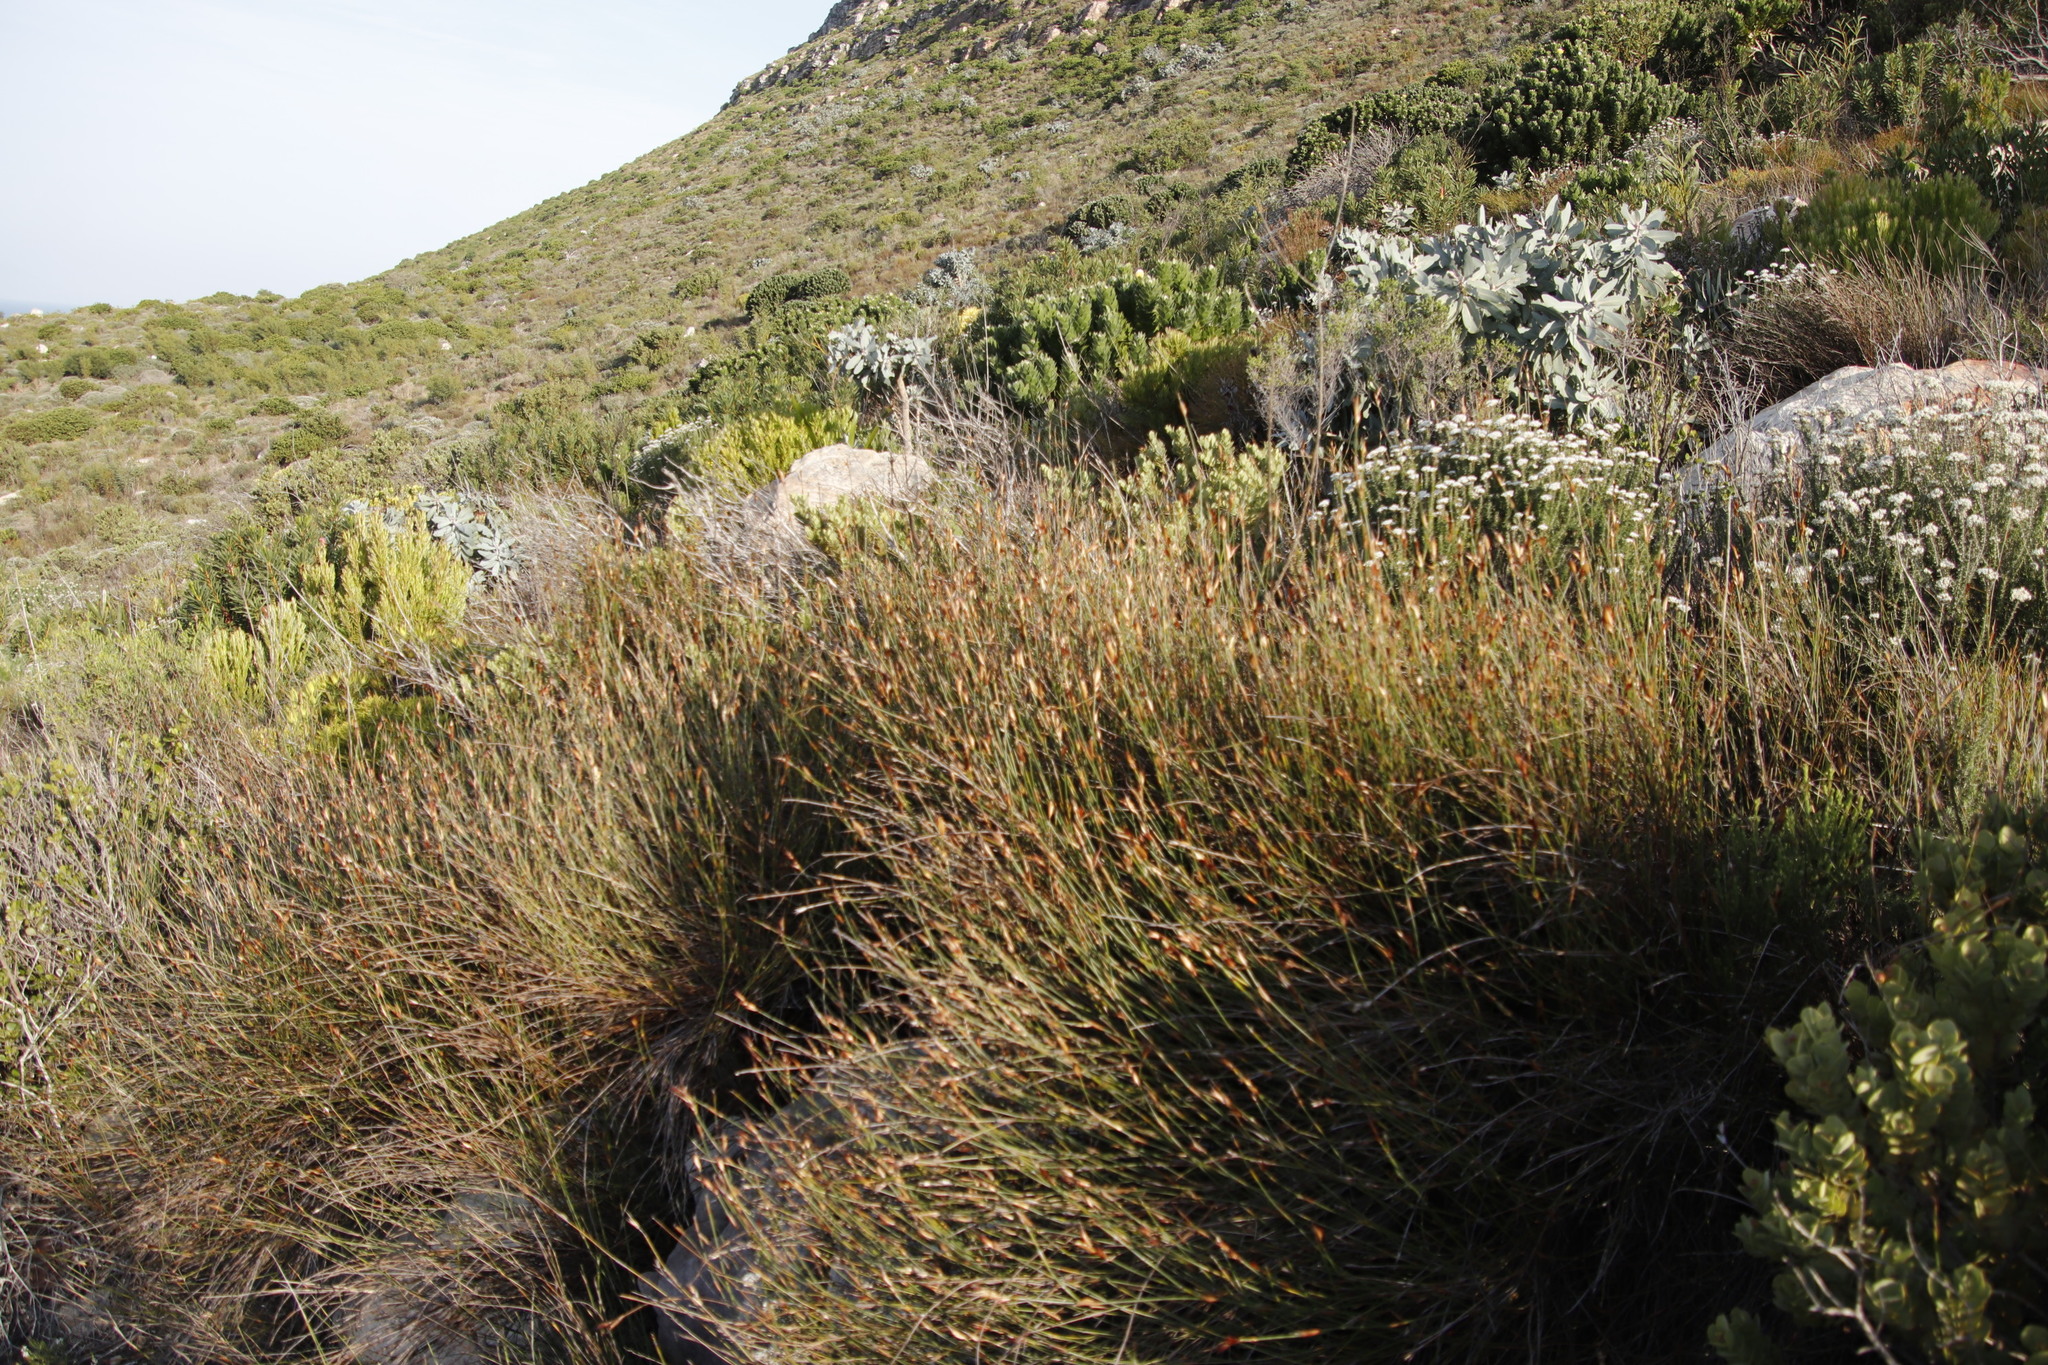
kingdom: Plantae
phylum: Tracheophyta
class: Liliopsida
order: Poales
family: Restionaceae
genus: Willdenowia
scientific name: Willdenowia glomerata
